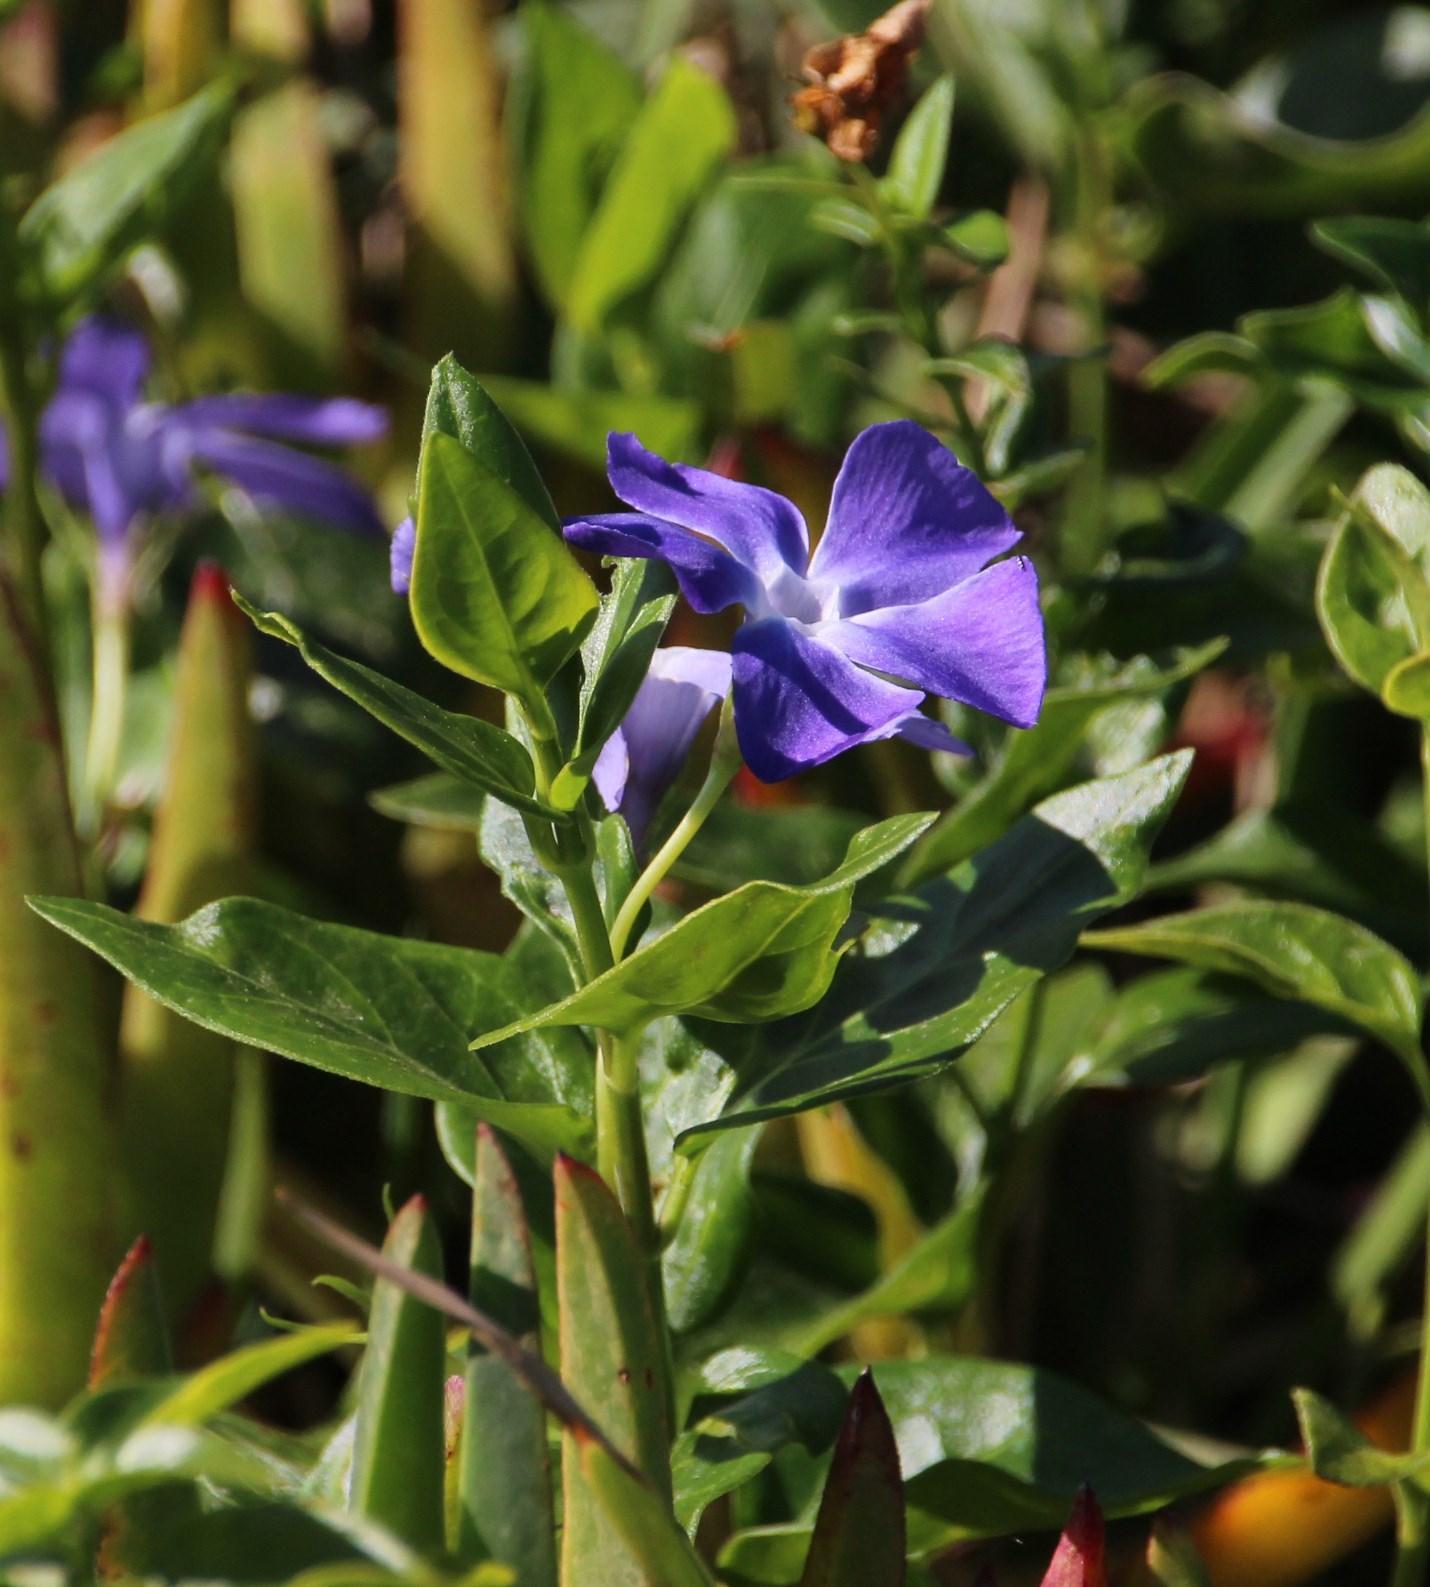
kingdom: Plantae
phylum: Tracheophyta
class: Magnoliopsida
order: Gentianales
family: Apocynaceae
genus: Vinca
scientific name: Vinca major
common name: Greater periwinkle
